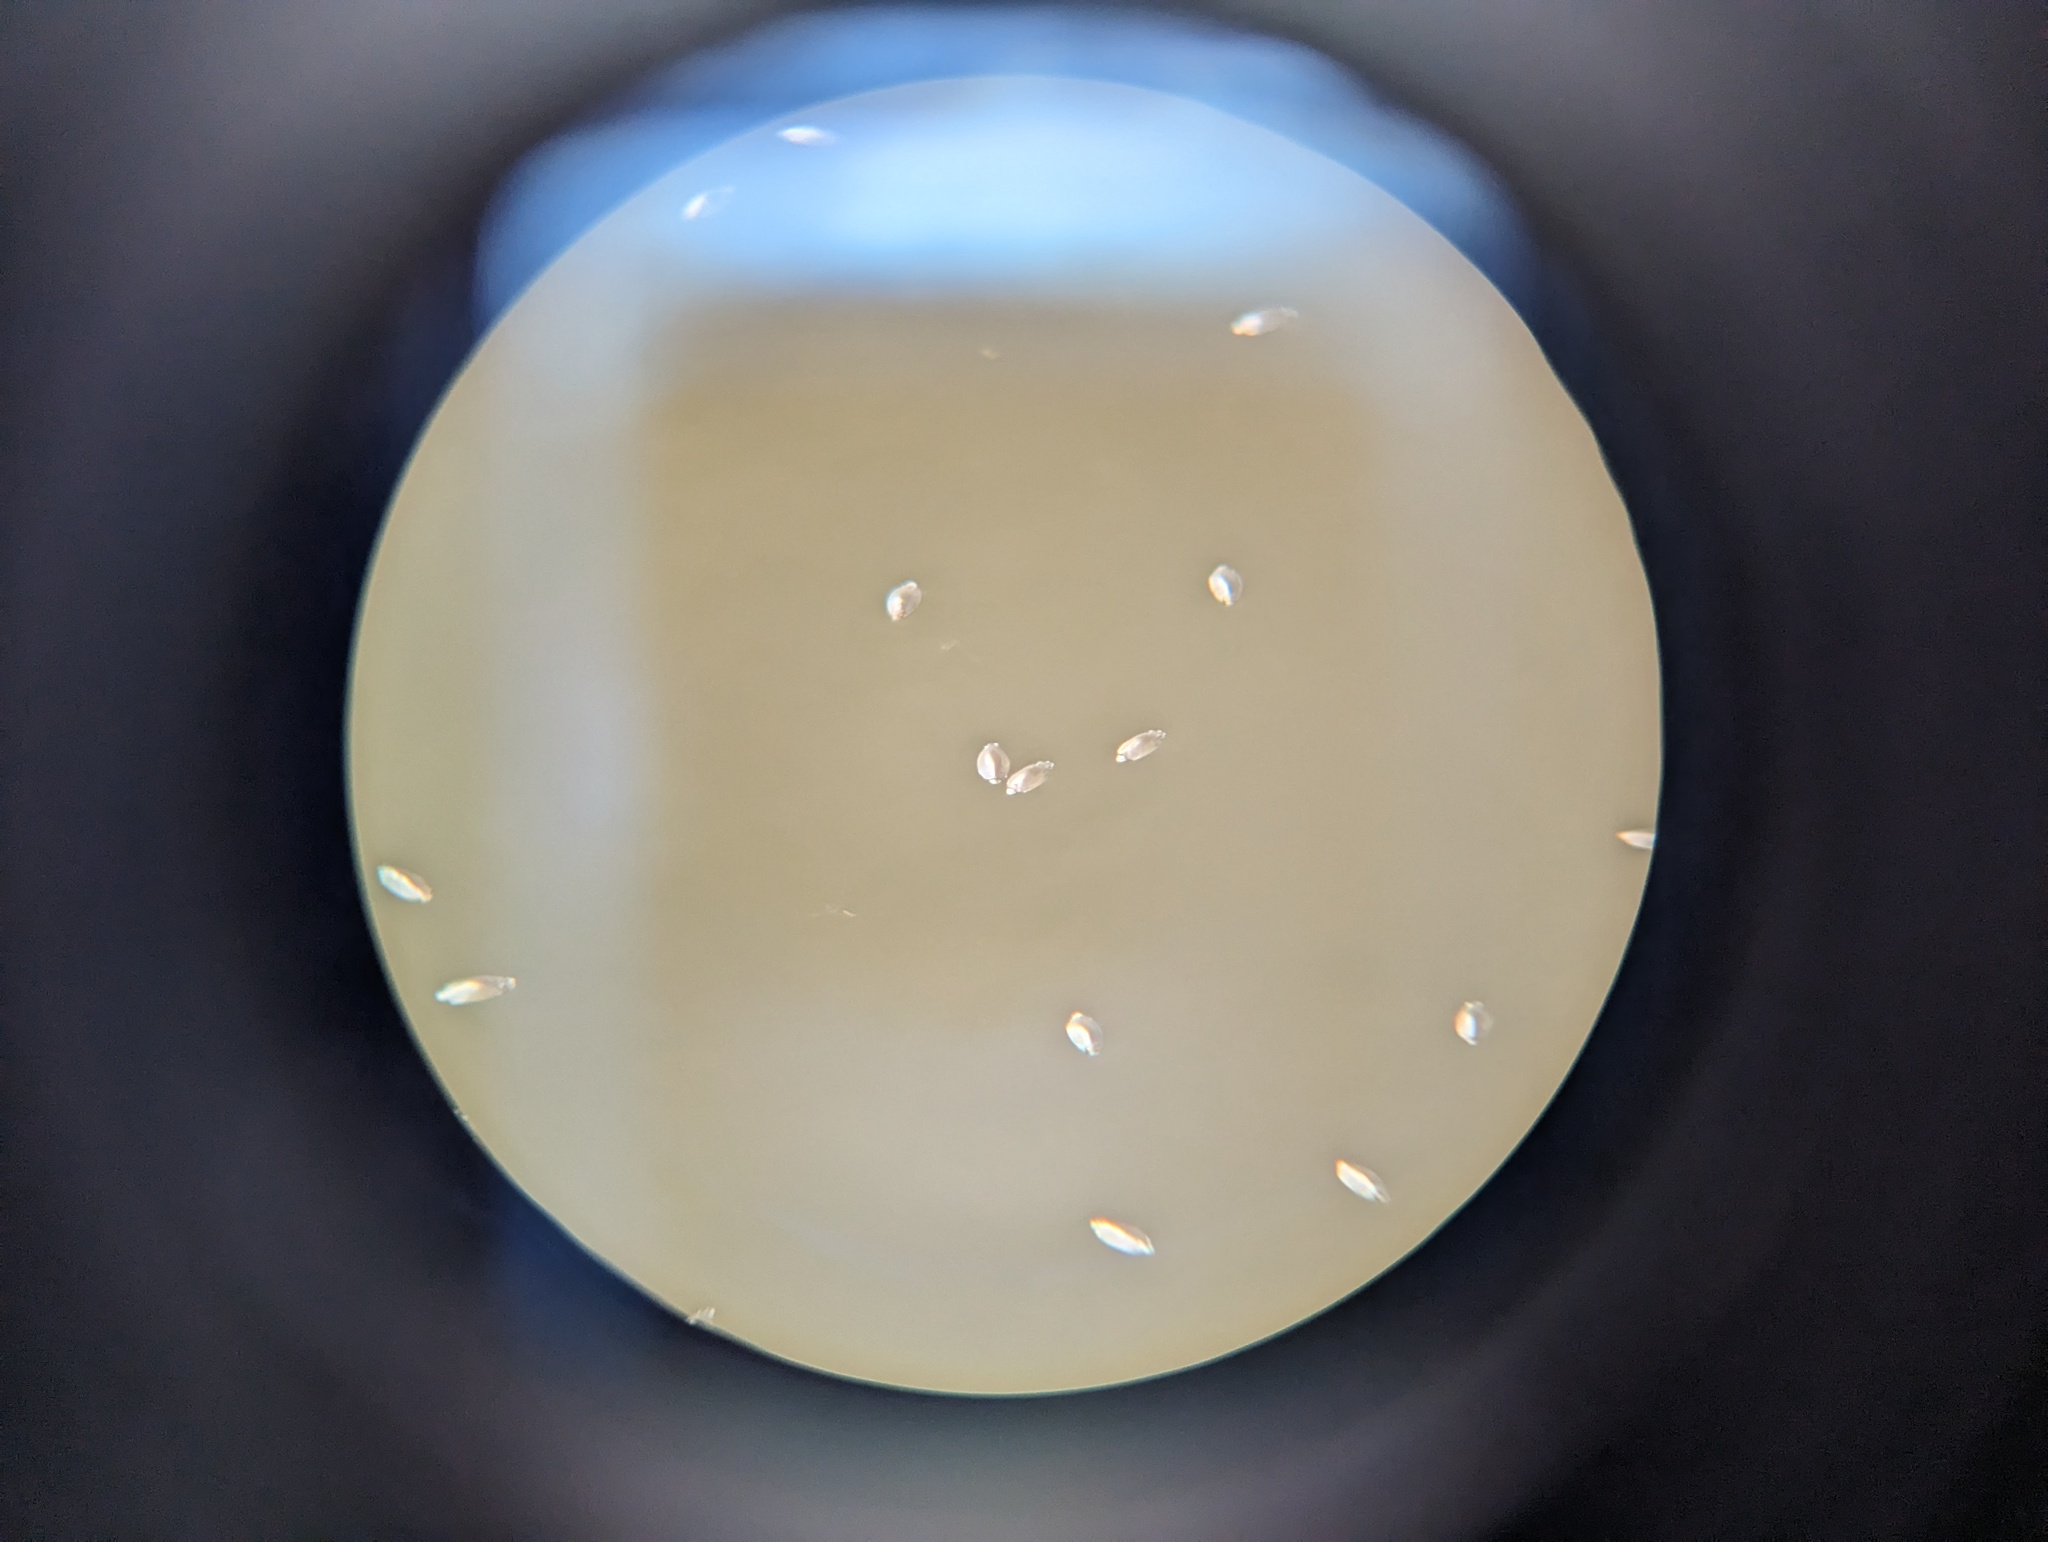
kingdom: Animalia
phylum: Arthropoda
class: Insecta
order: Coleoptera
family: Gyrinidae
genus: Dineutus
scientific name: Dineutus
